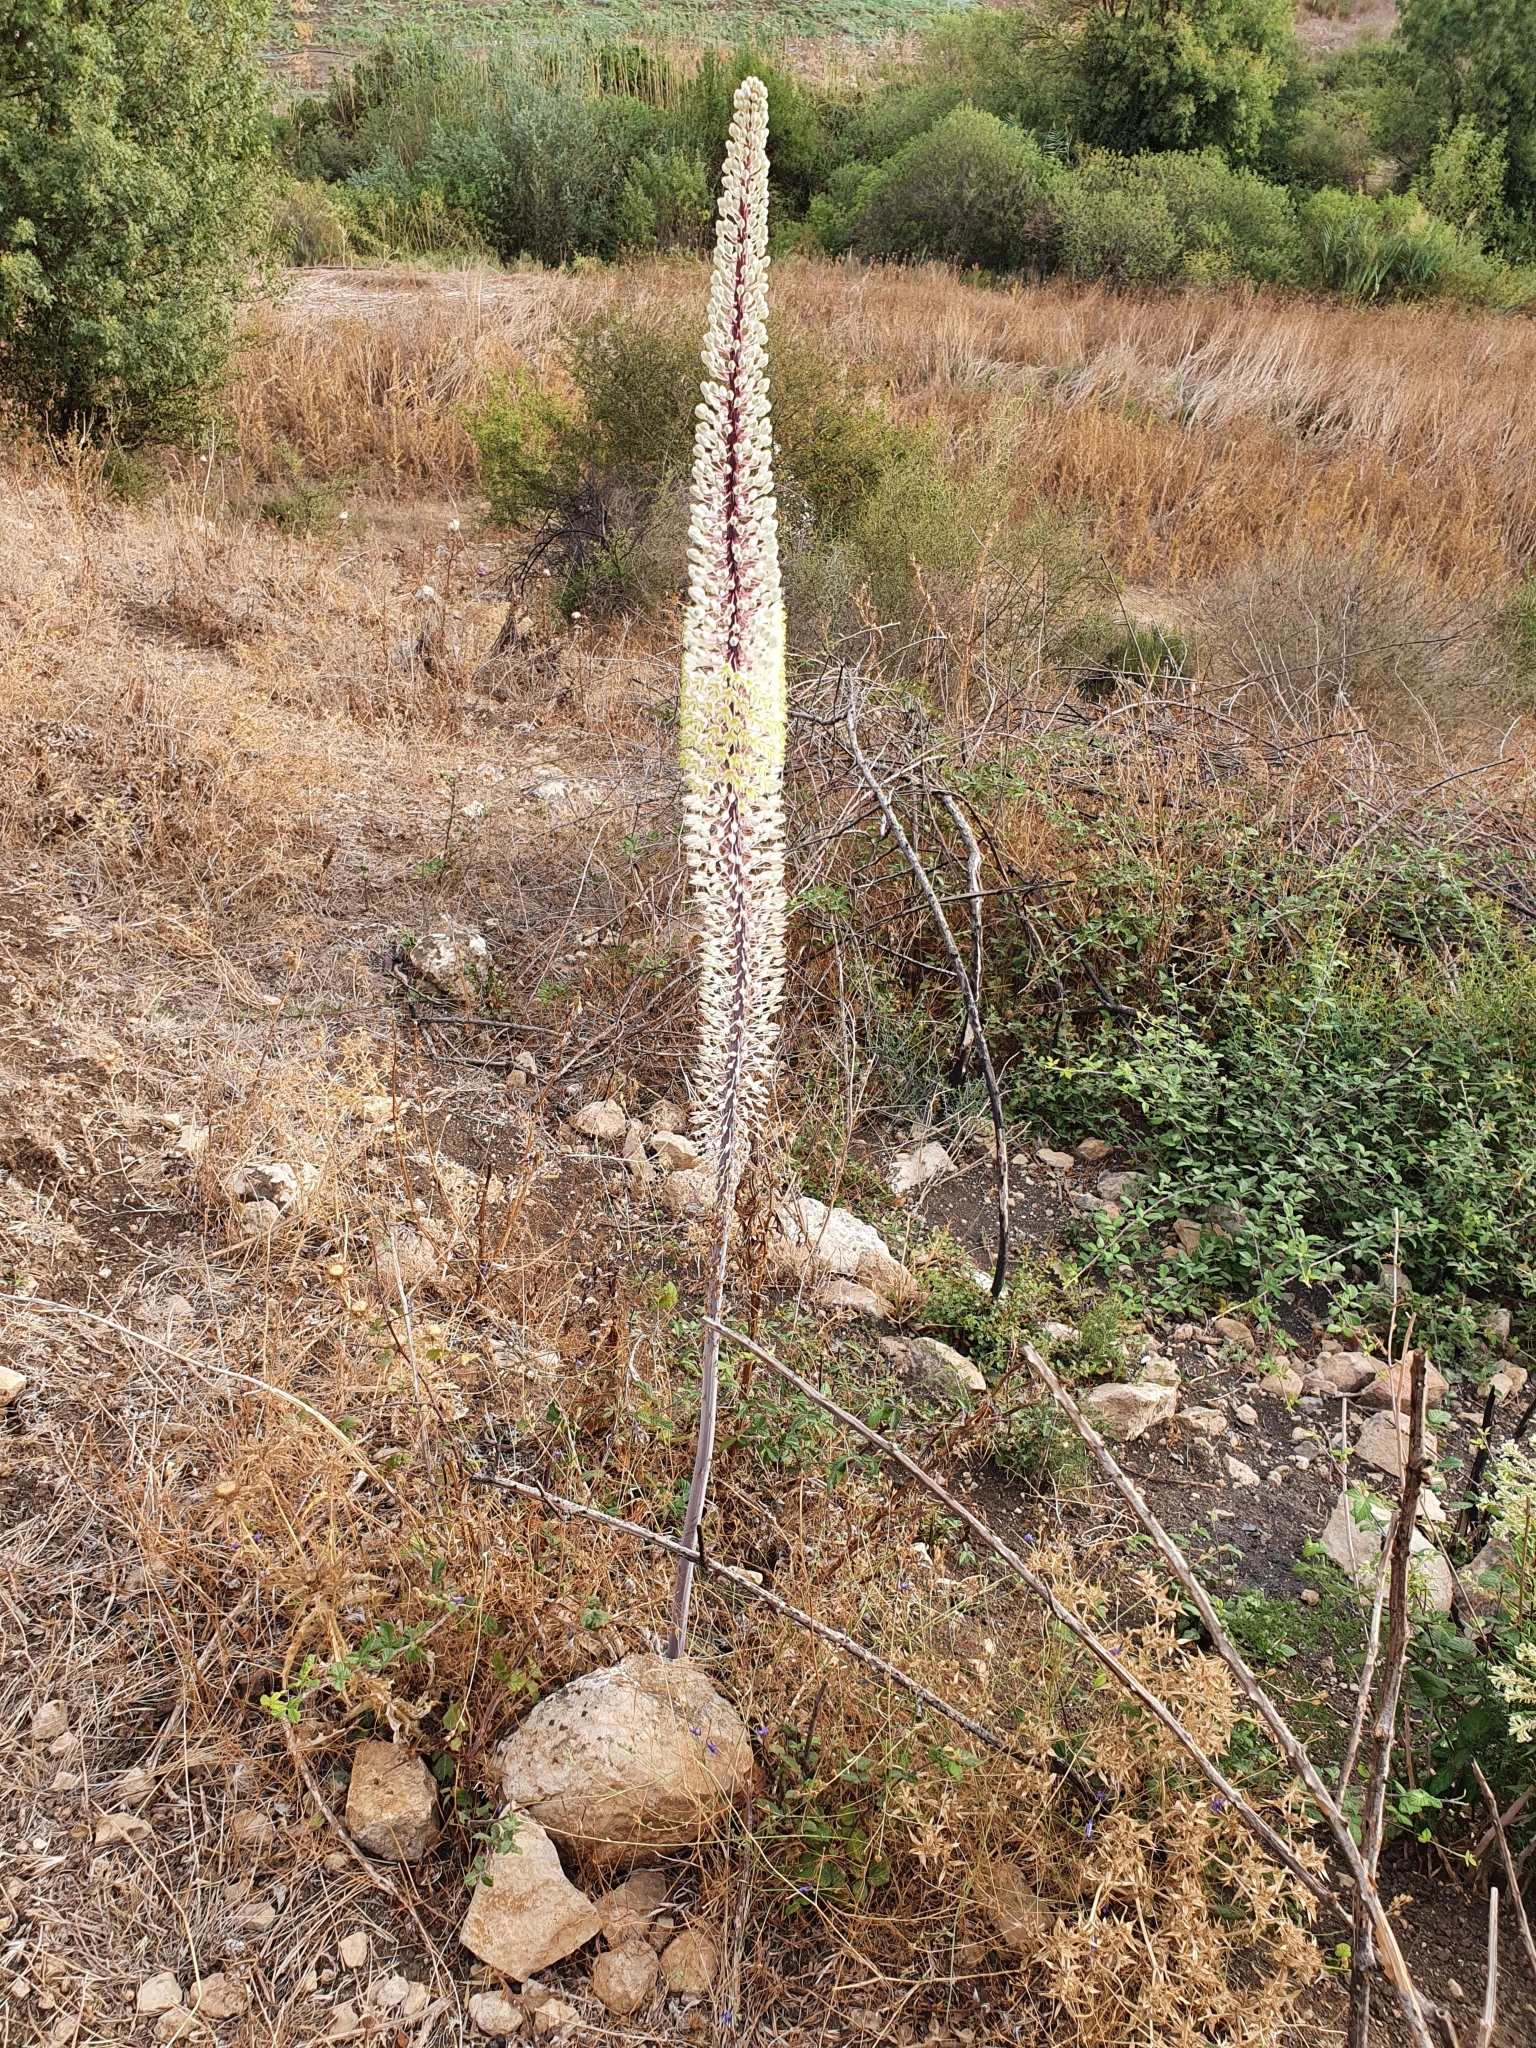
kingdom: Plantae
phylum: Tracheophyta
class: Liliopsida
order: Asparagales
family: Asparagaceae
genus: Drimia
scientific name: Drimia numidica
